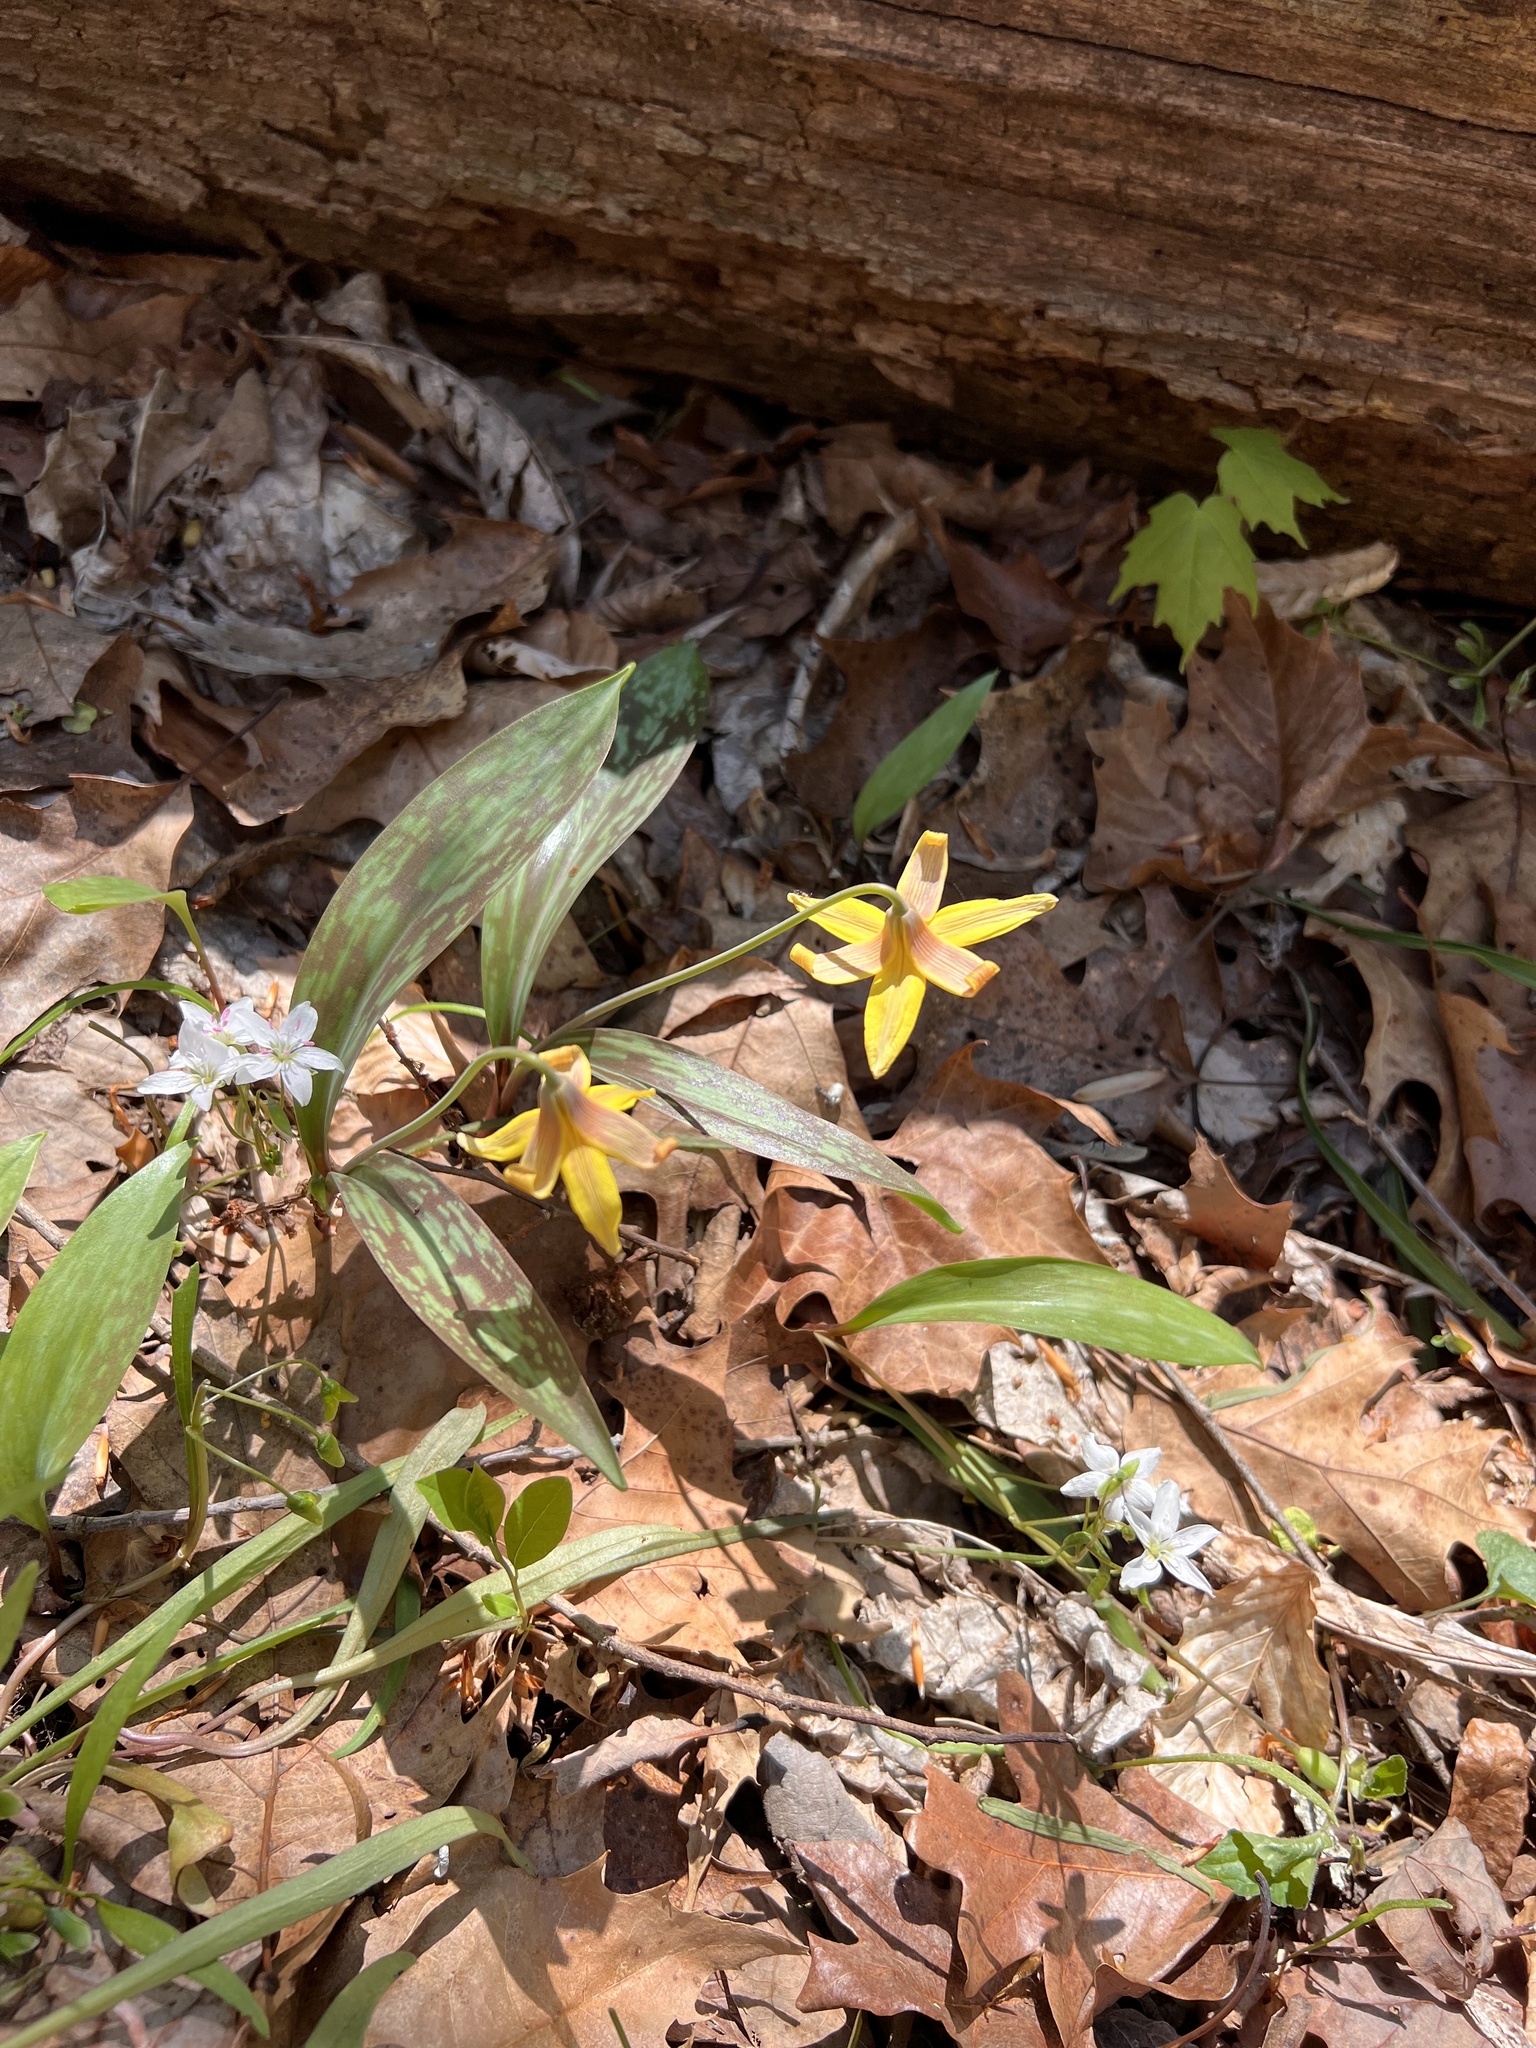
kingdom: Plantae
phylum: Tracheophyta
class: Liliopsida
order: Liliales
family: Liliaceae
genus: Erythronium
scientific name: Erythronium americanum
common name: Yellow adder's-tongue
